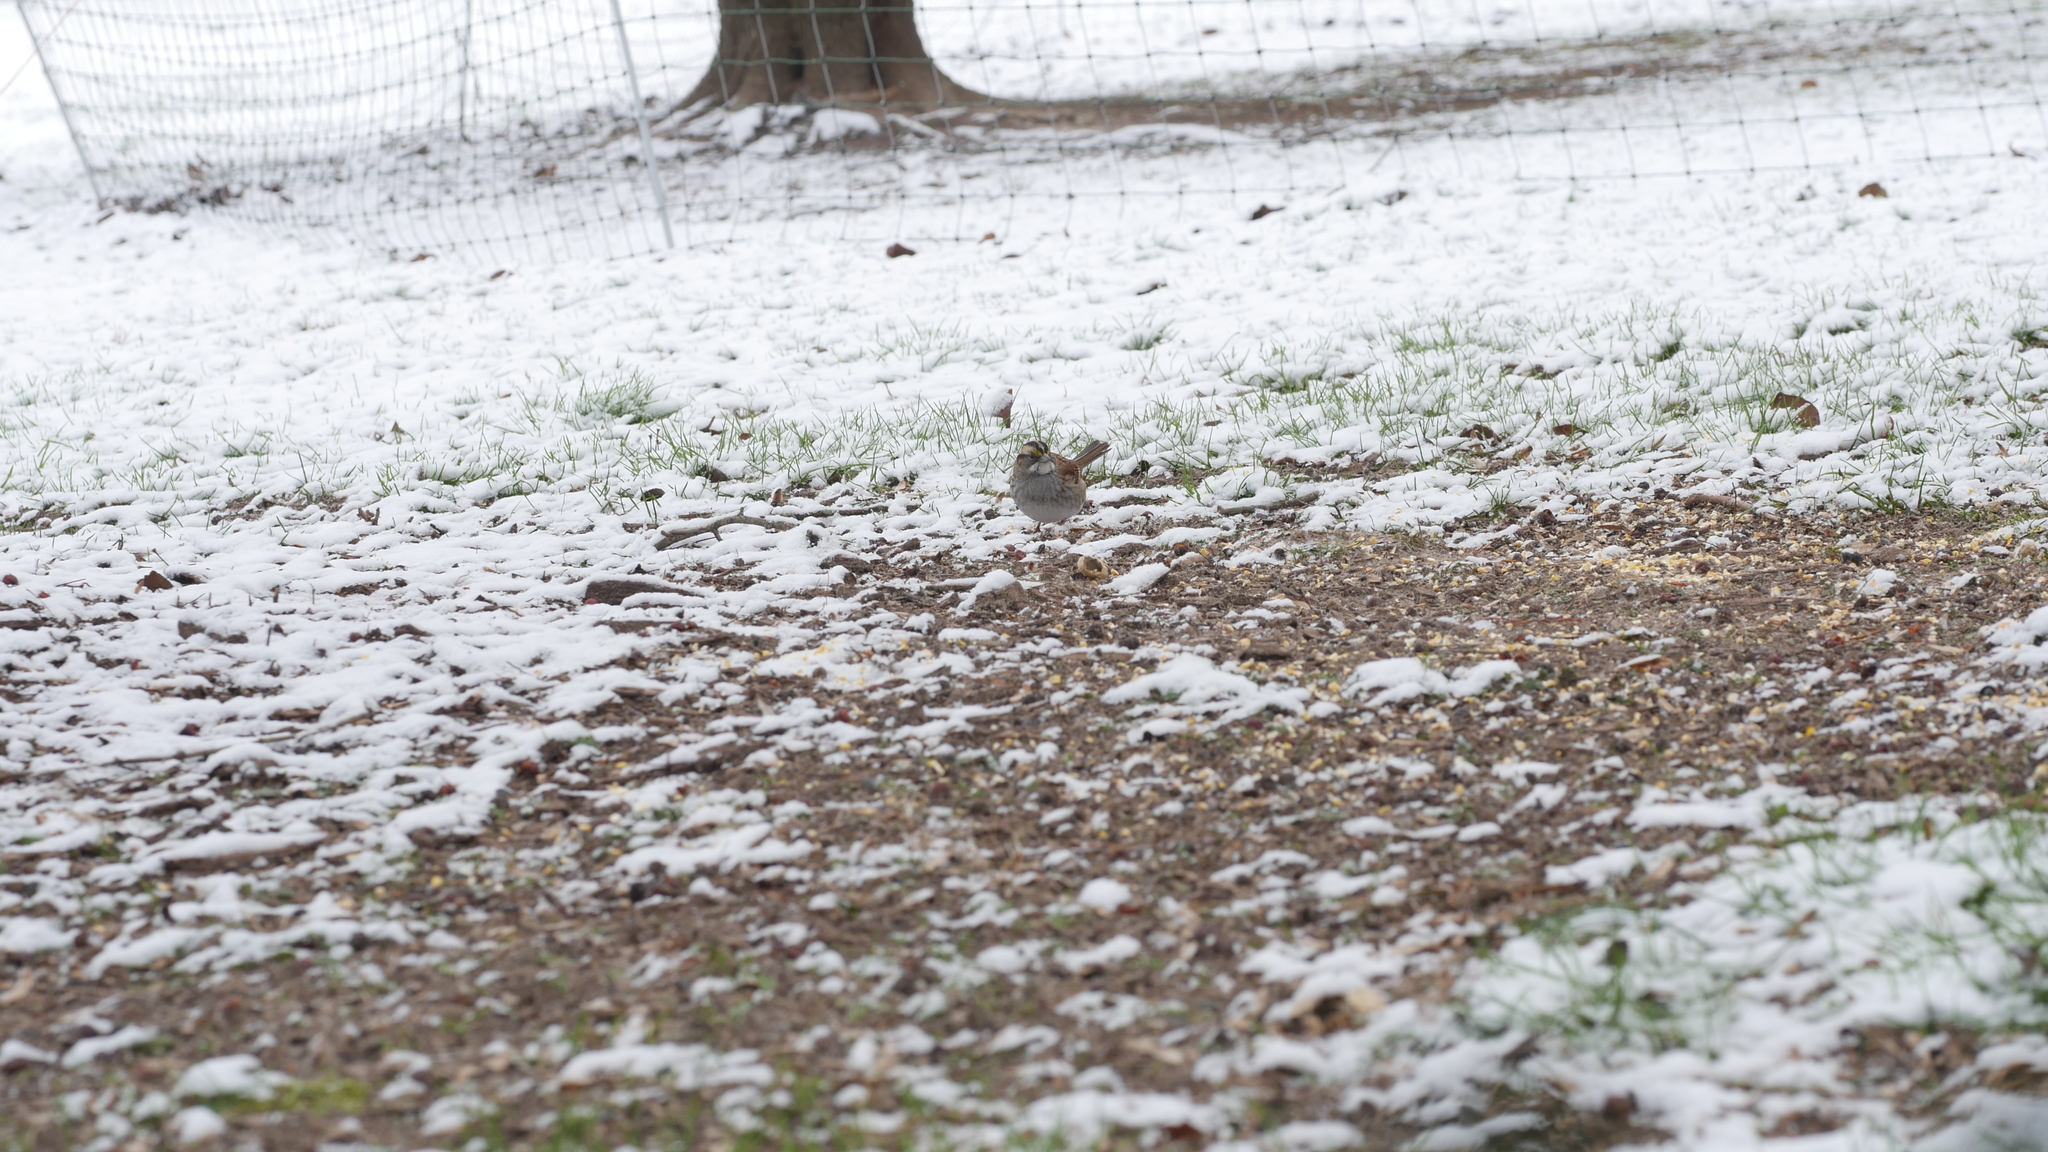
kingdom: Animalia
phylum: Chordata
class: Aves
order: Passeriformes
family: Passerellidae
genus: Zonotrichia
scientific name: Zonotrichia albicollis
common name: White-throated sparrow
